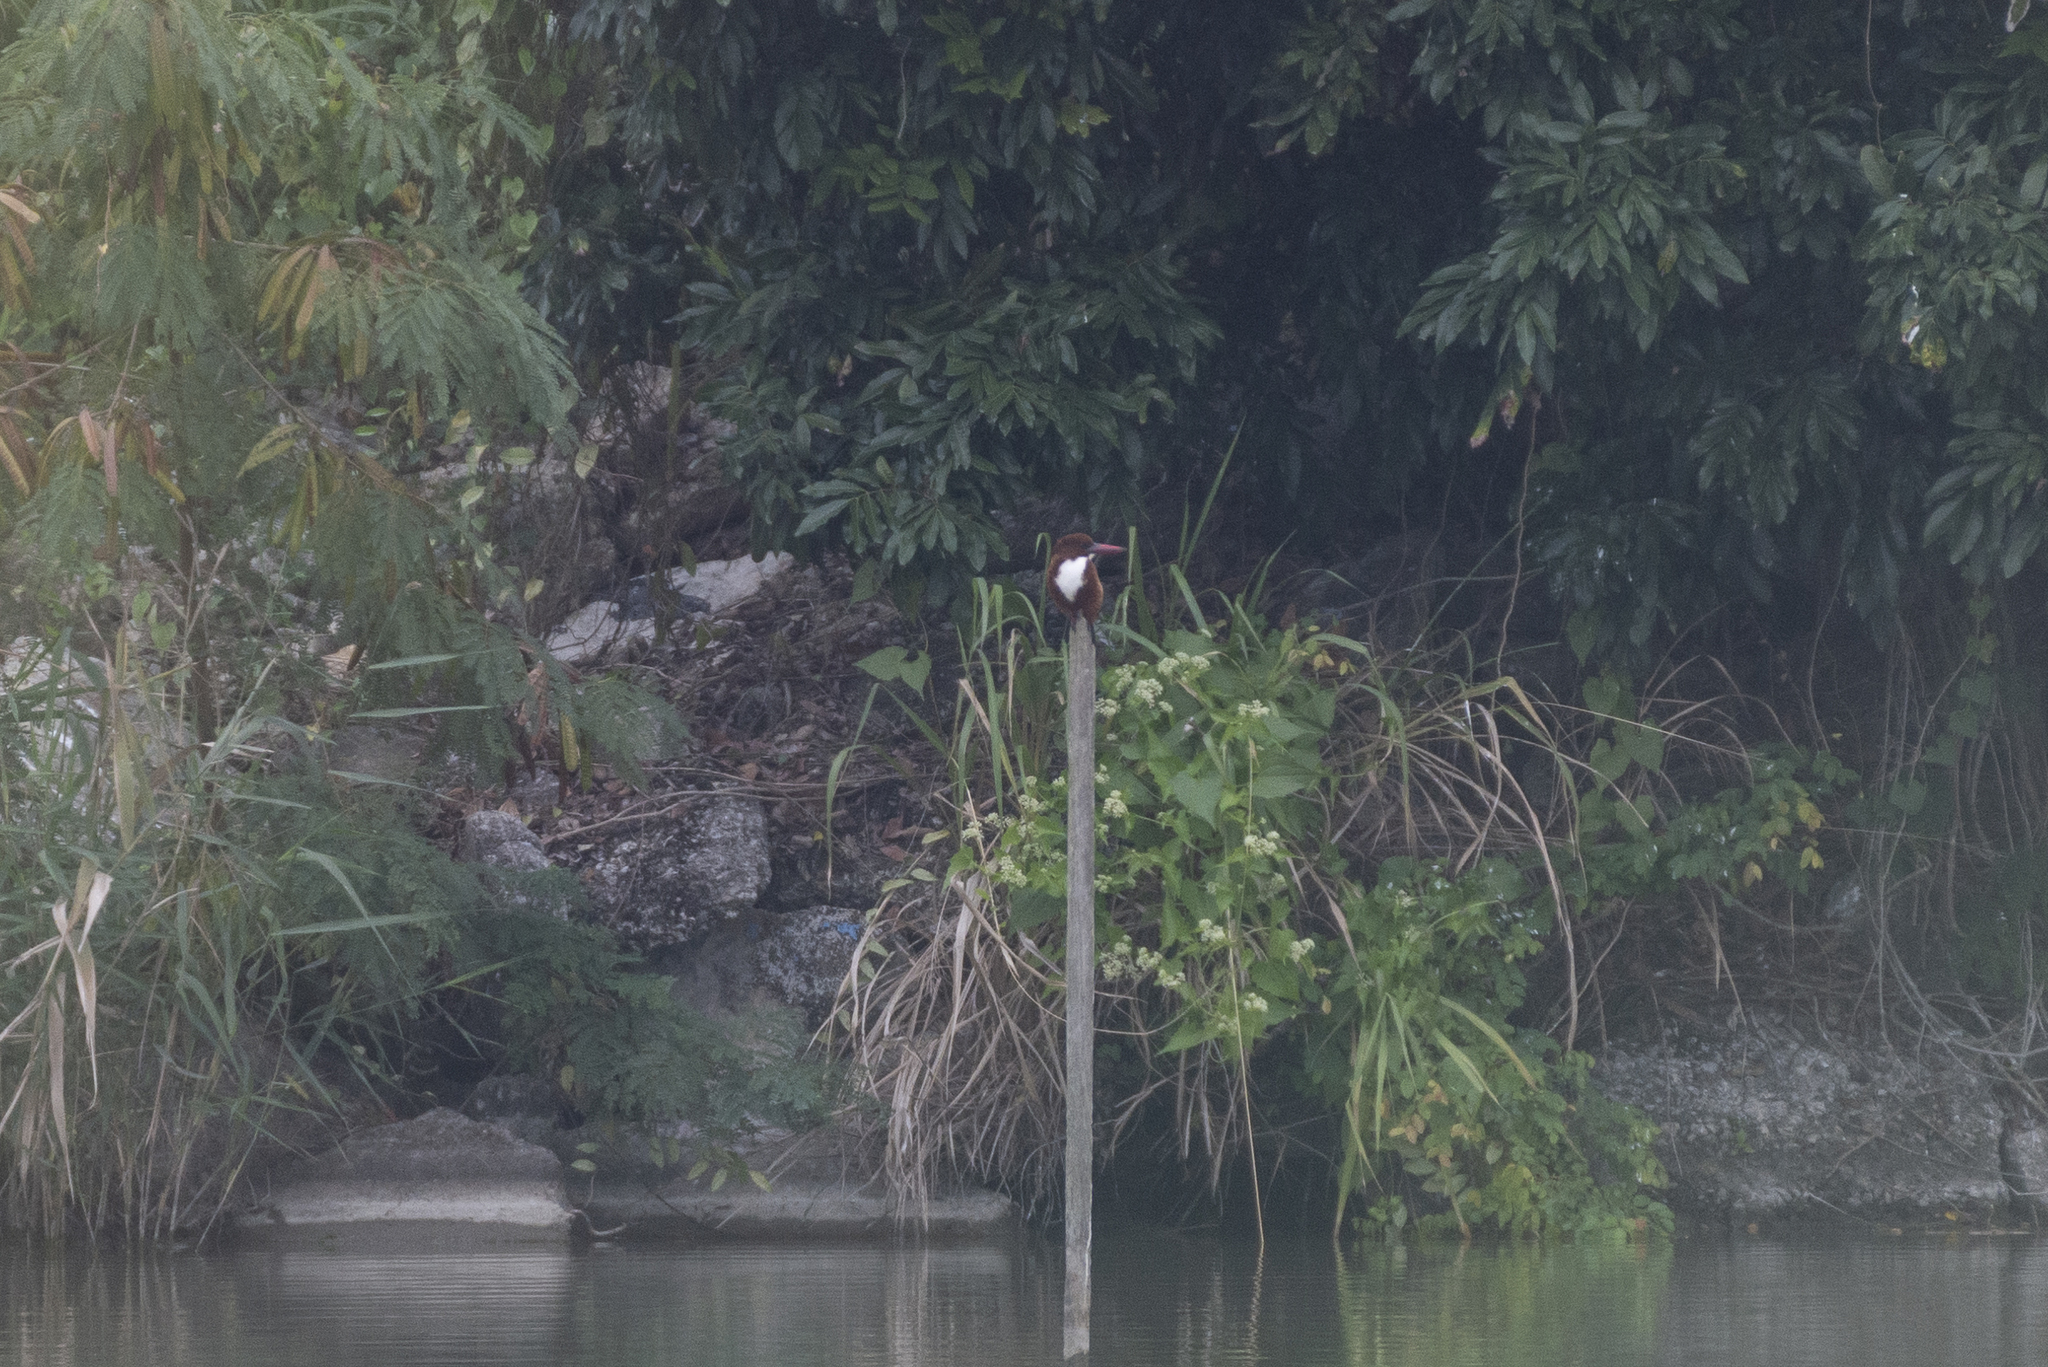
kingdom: Animalia
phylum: Chordata
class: Aves
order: Coraciiformes
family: Alcedinidae
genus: Halcyon
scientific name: Halcyon smyrnensis
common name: White-throated kingfisher
